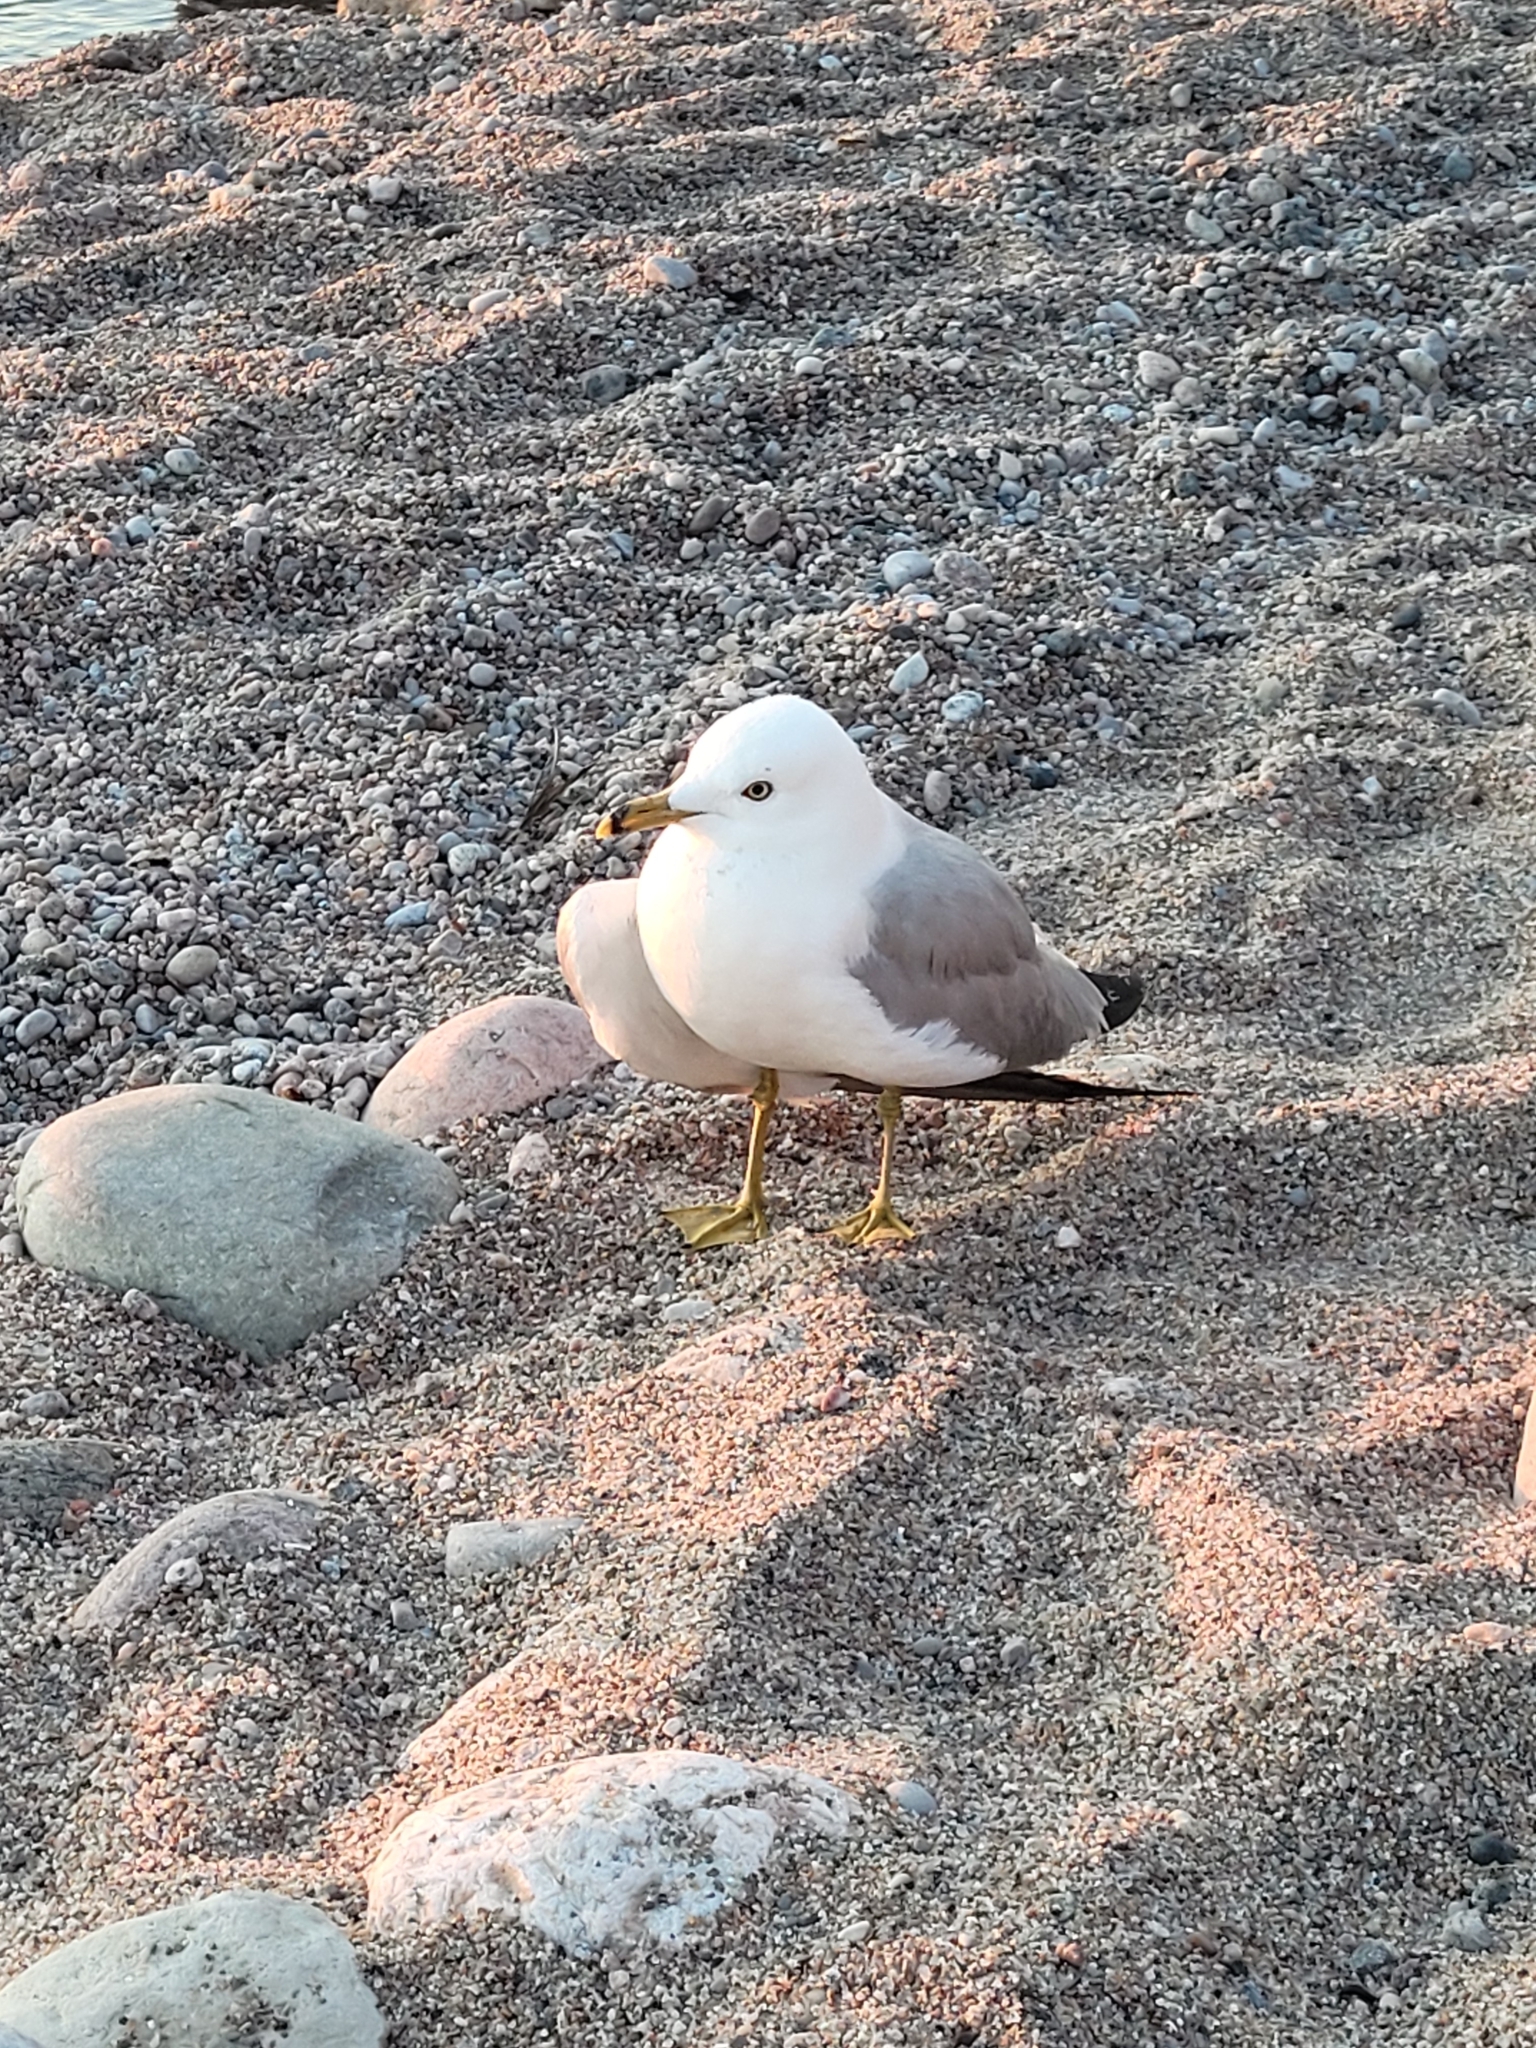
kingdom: Animalia
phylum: Chordata
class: Aves
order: Charadriiformes
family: Laridae
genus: Larus
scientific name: Larus delawarensis
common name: Ring-billed gull
